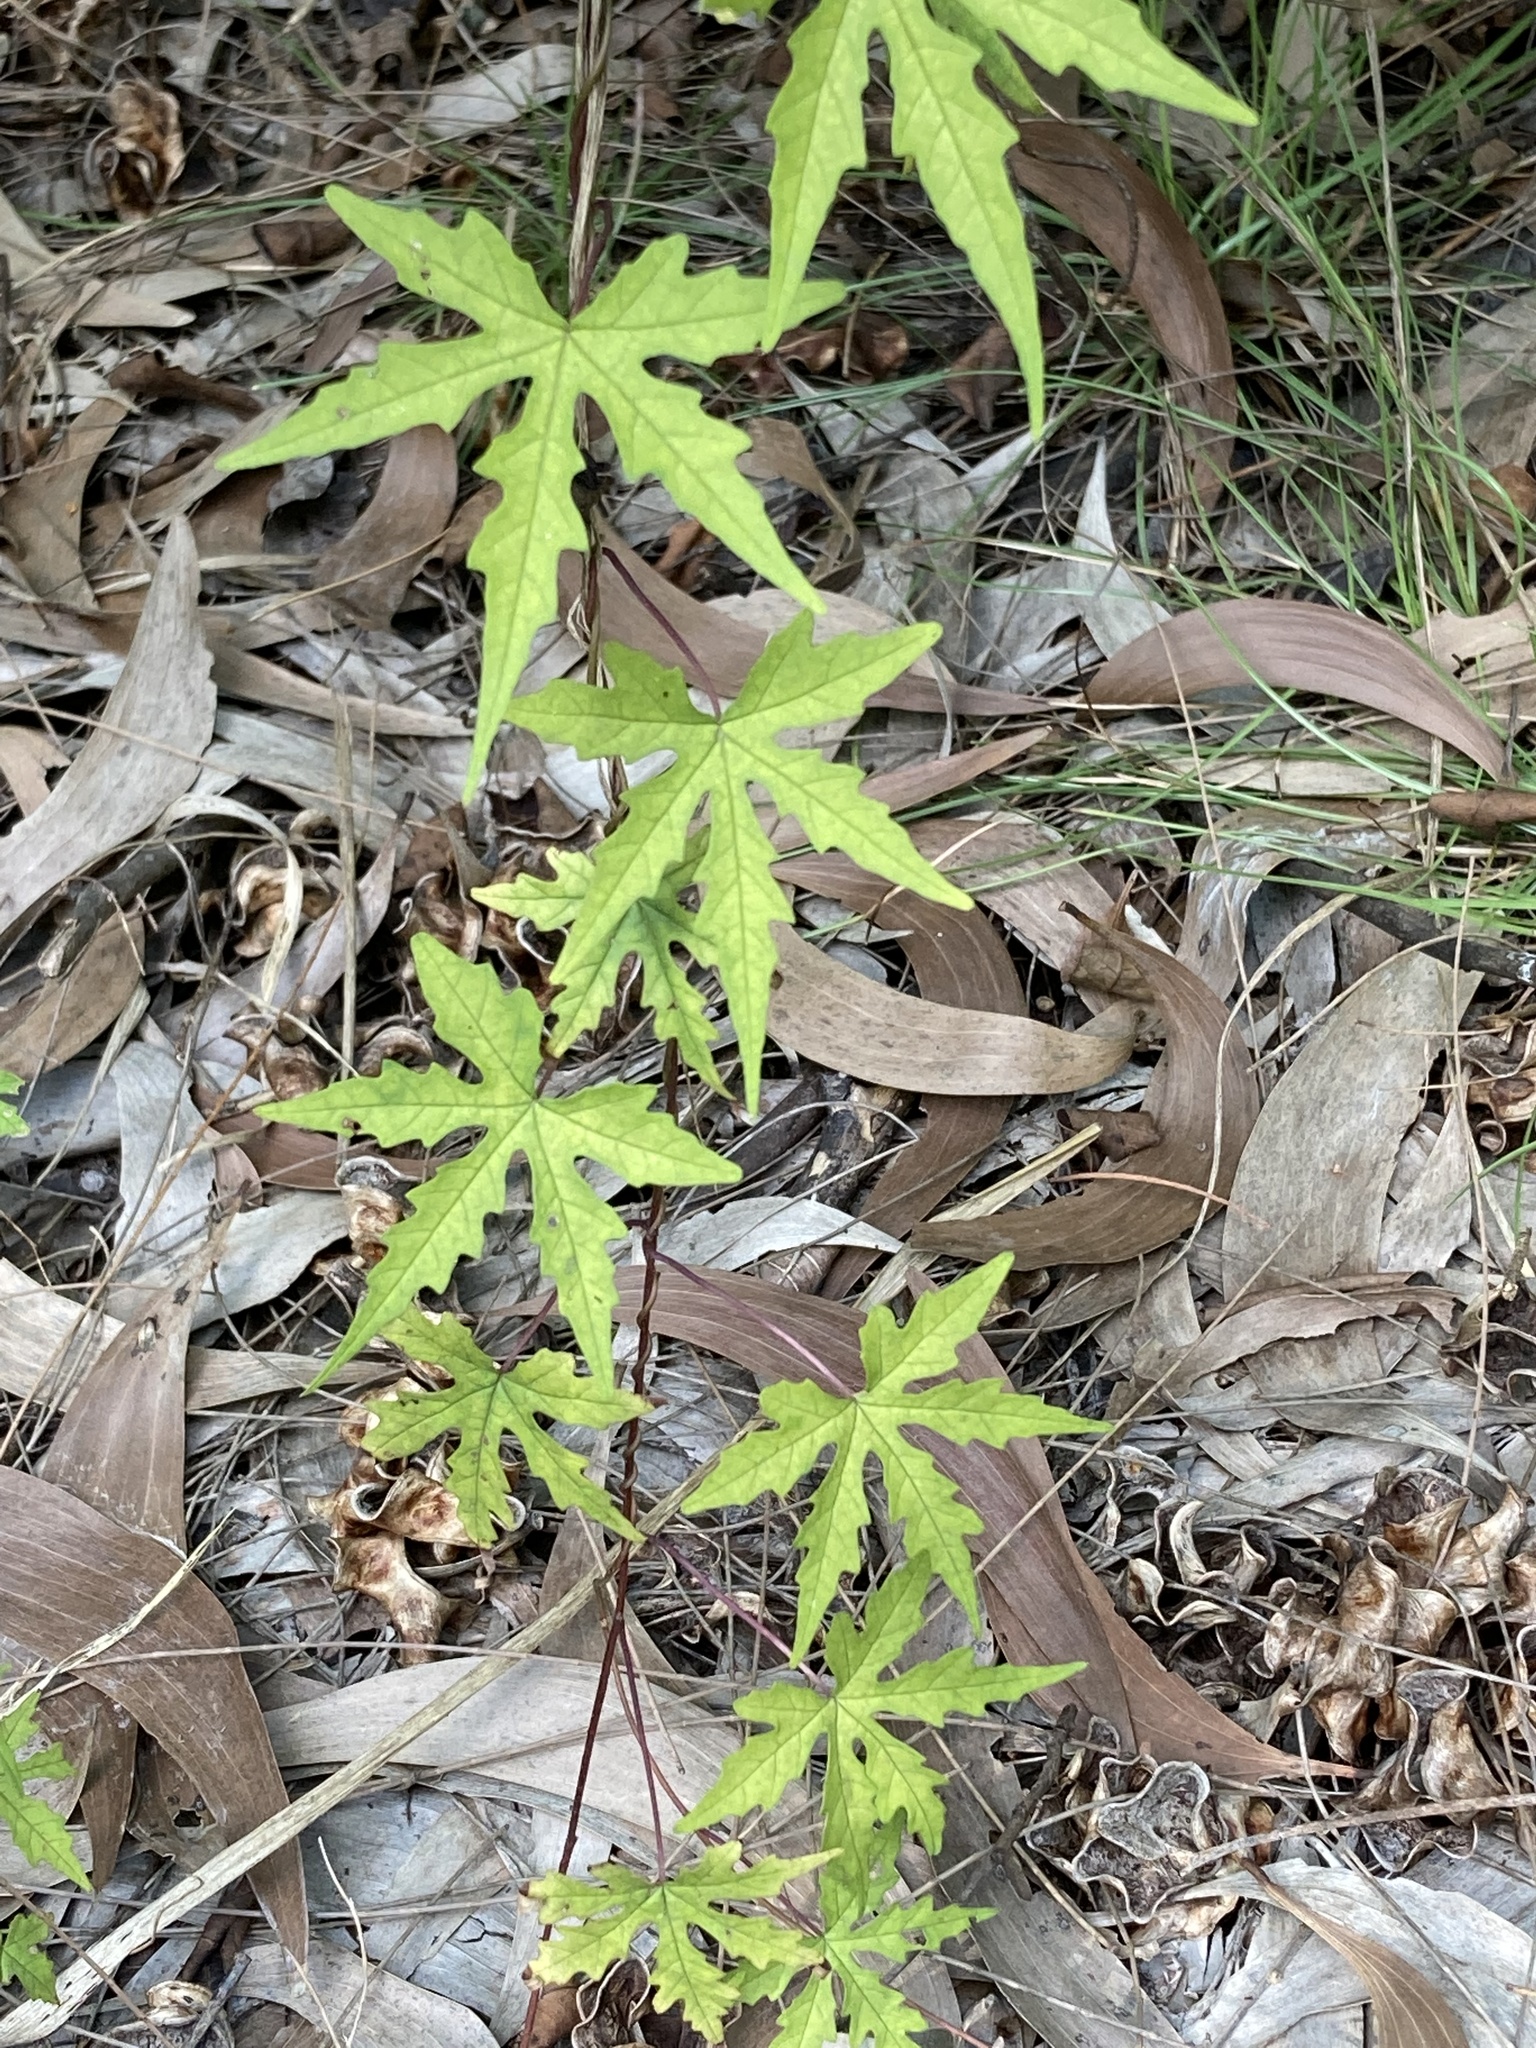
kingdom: Plantae
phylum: Tracheophyta
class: Magnoliopsida
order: Solanales
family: Convolvulaceae
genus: Distimake
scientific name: Distimake dissectus
